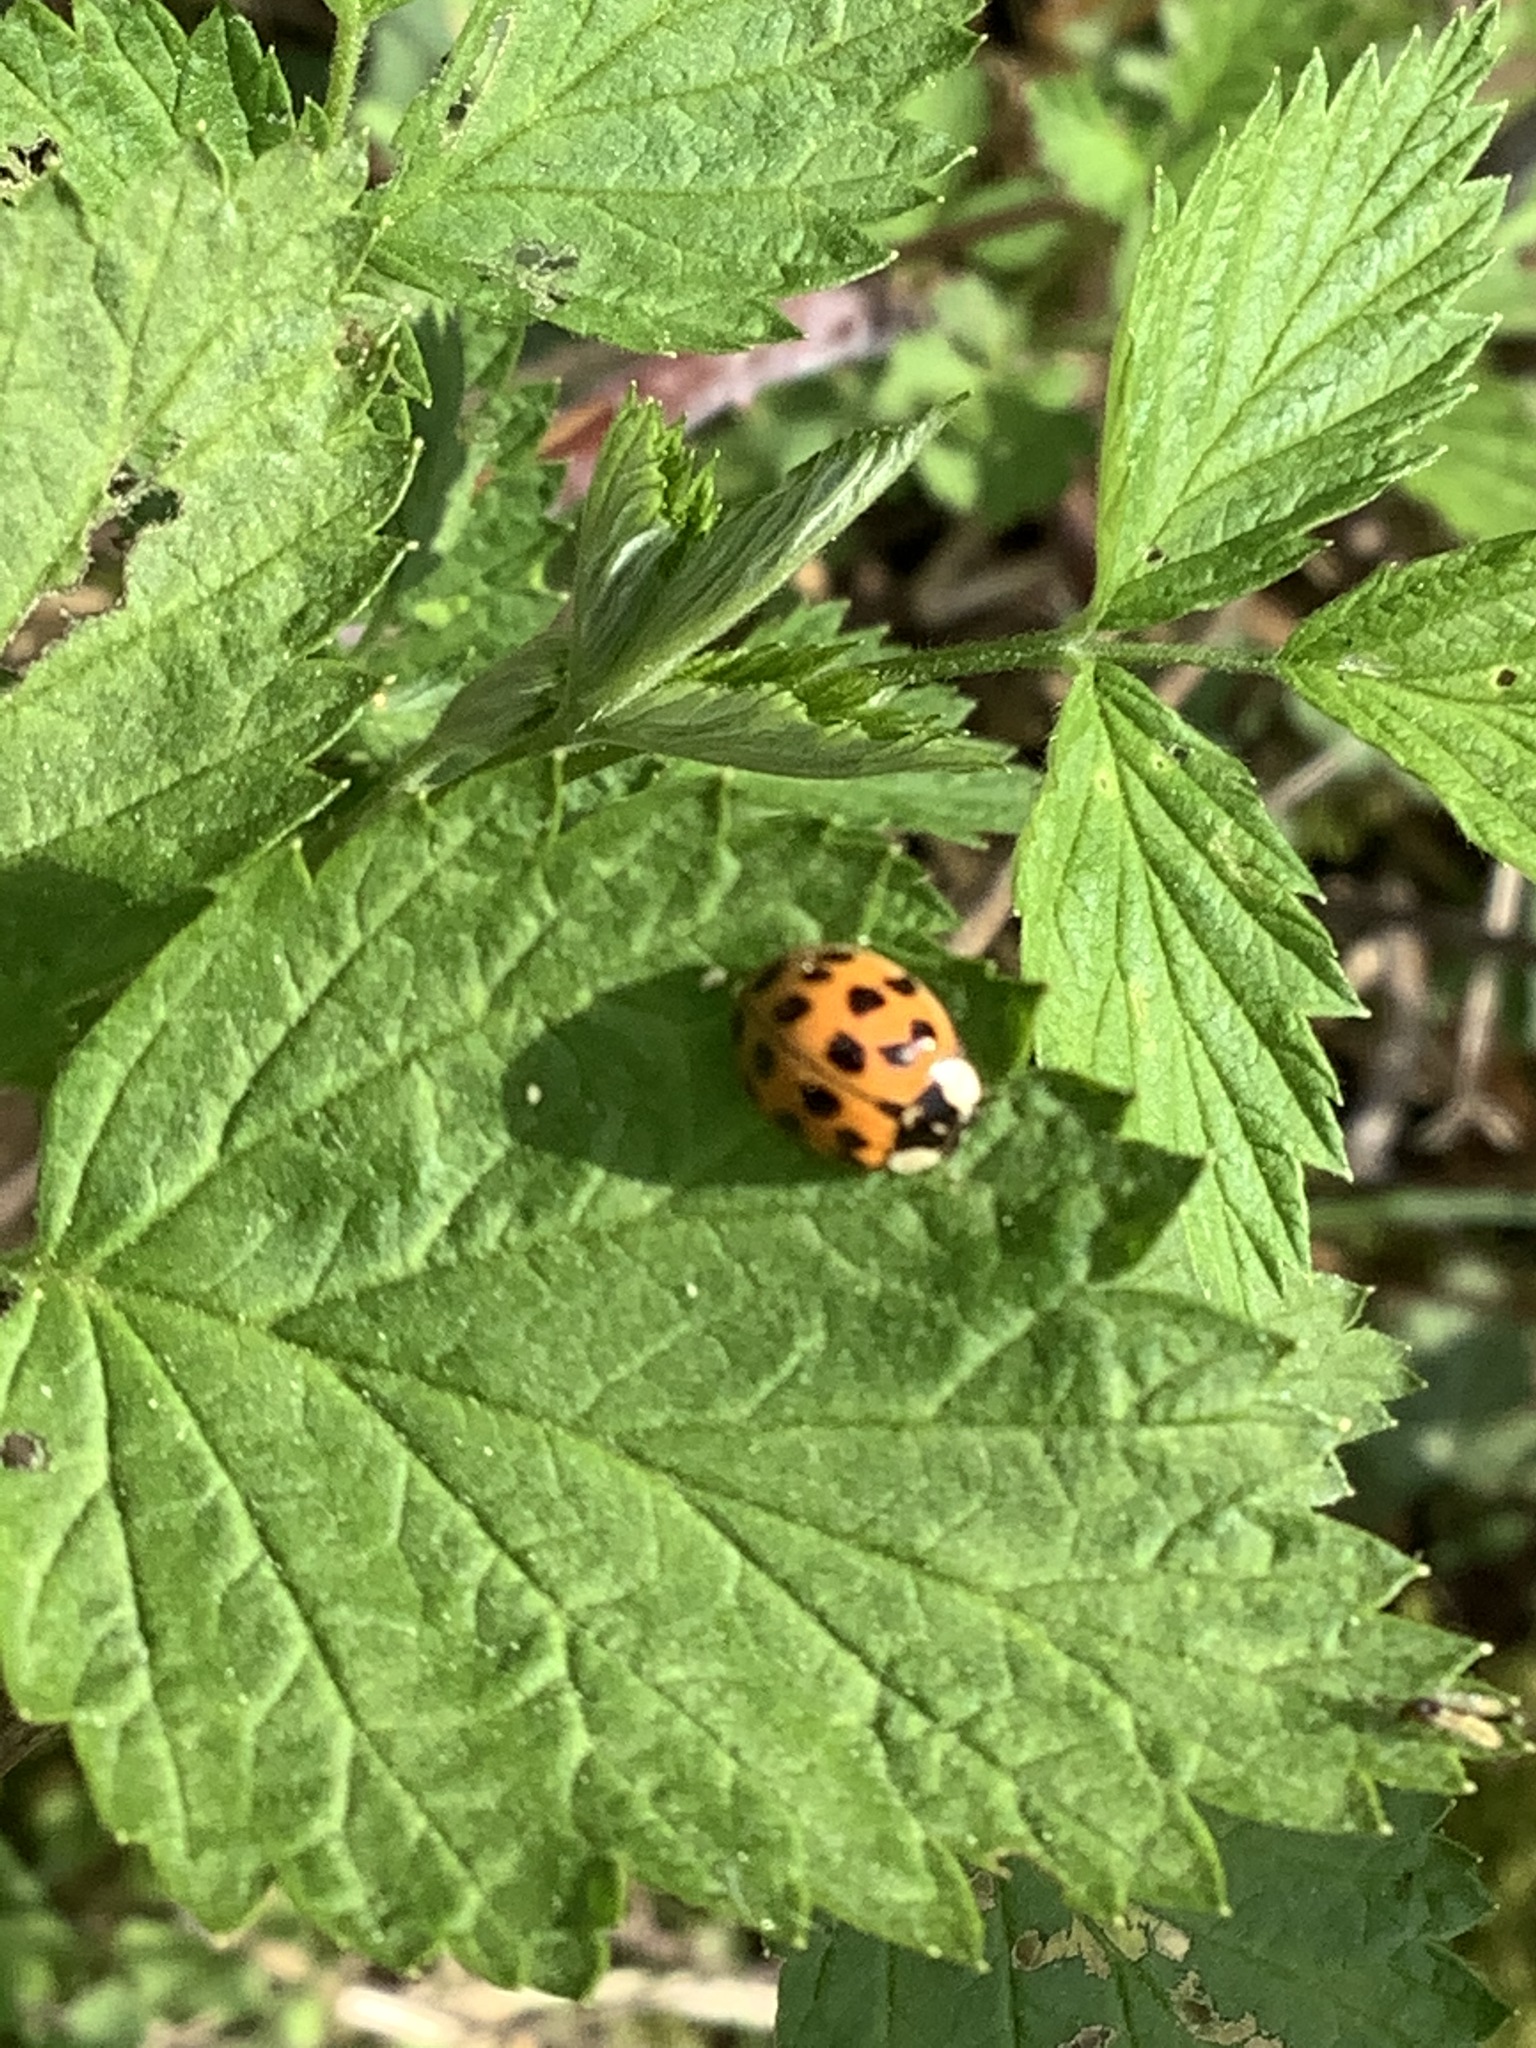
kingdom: Animalia
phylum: Arthropoda
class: Insecta
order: Coleoptera
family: Coccinellidae
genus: Harmonia
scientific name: Harmonia axyridis
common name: Harlequin ladybird
